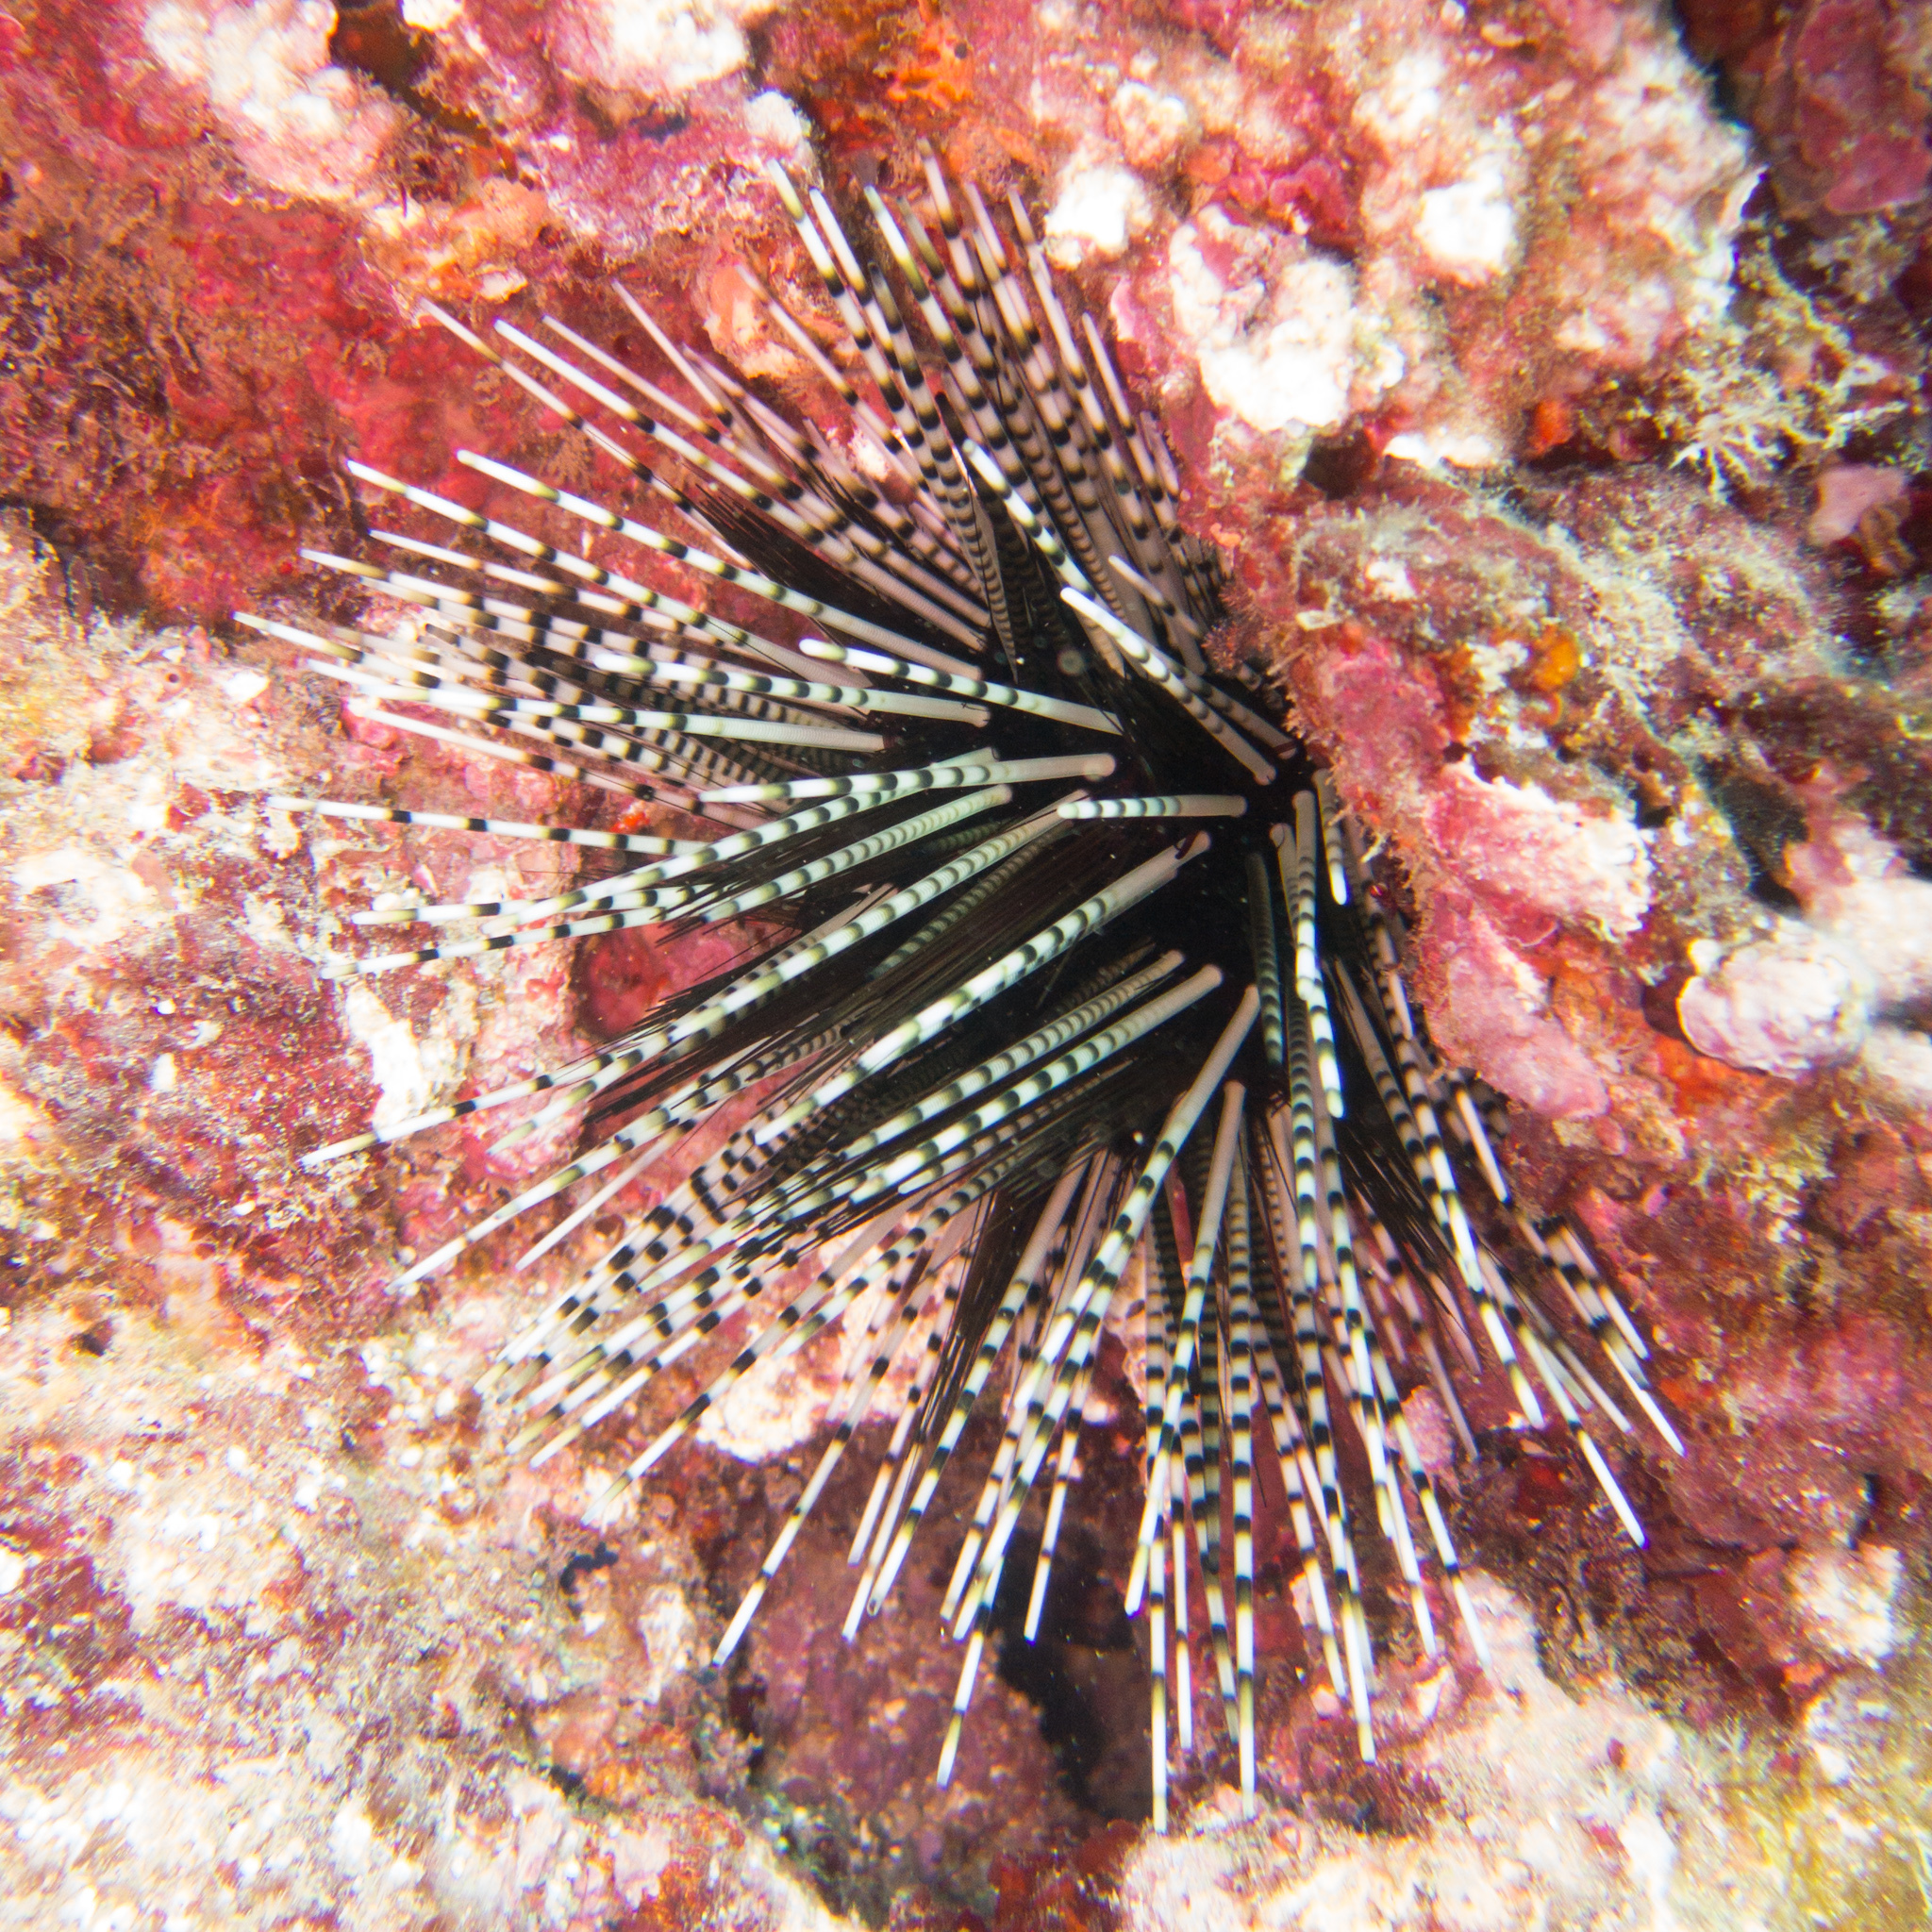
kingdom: Animalia
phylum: Echinodermata
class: Echinoidea
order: Diadematoida
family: Diadematidae
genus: Echinothrix
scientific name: Echinothrix calamaris
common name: Banded sea urchin
